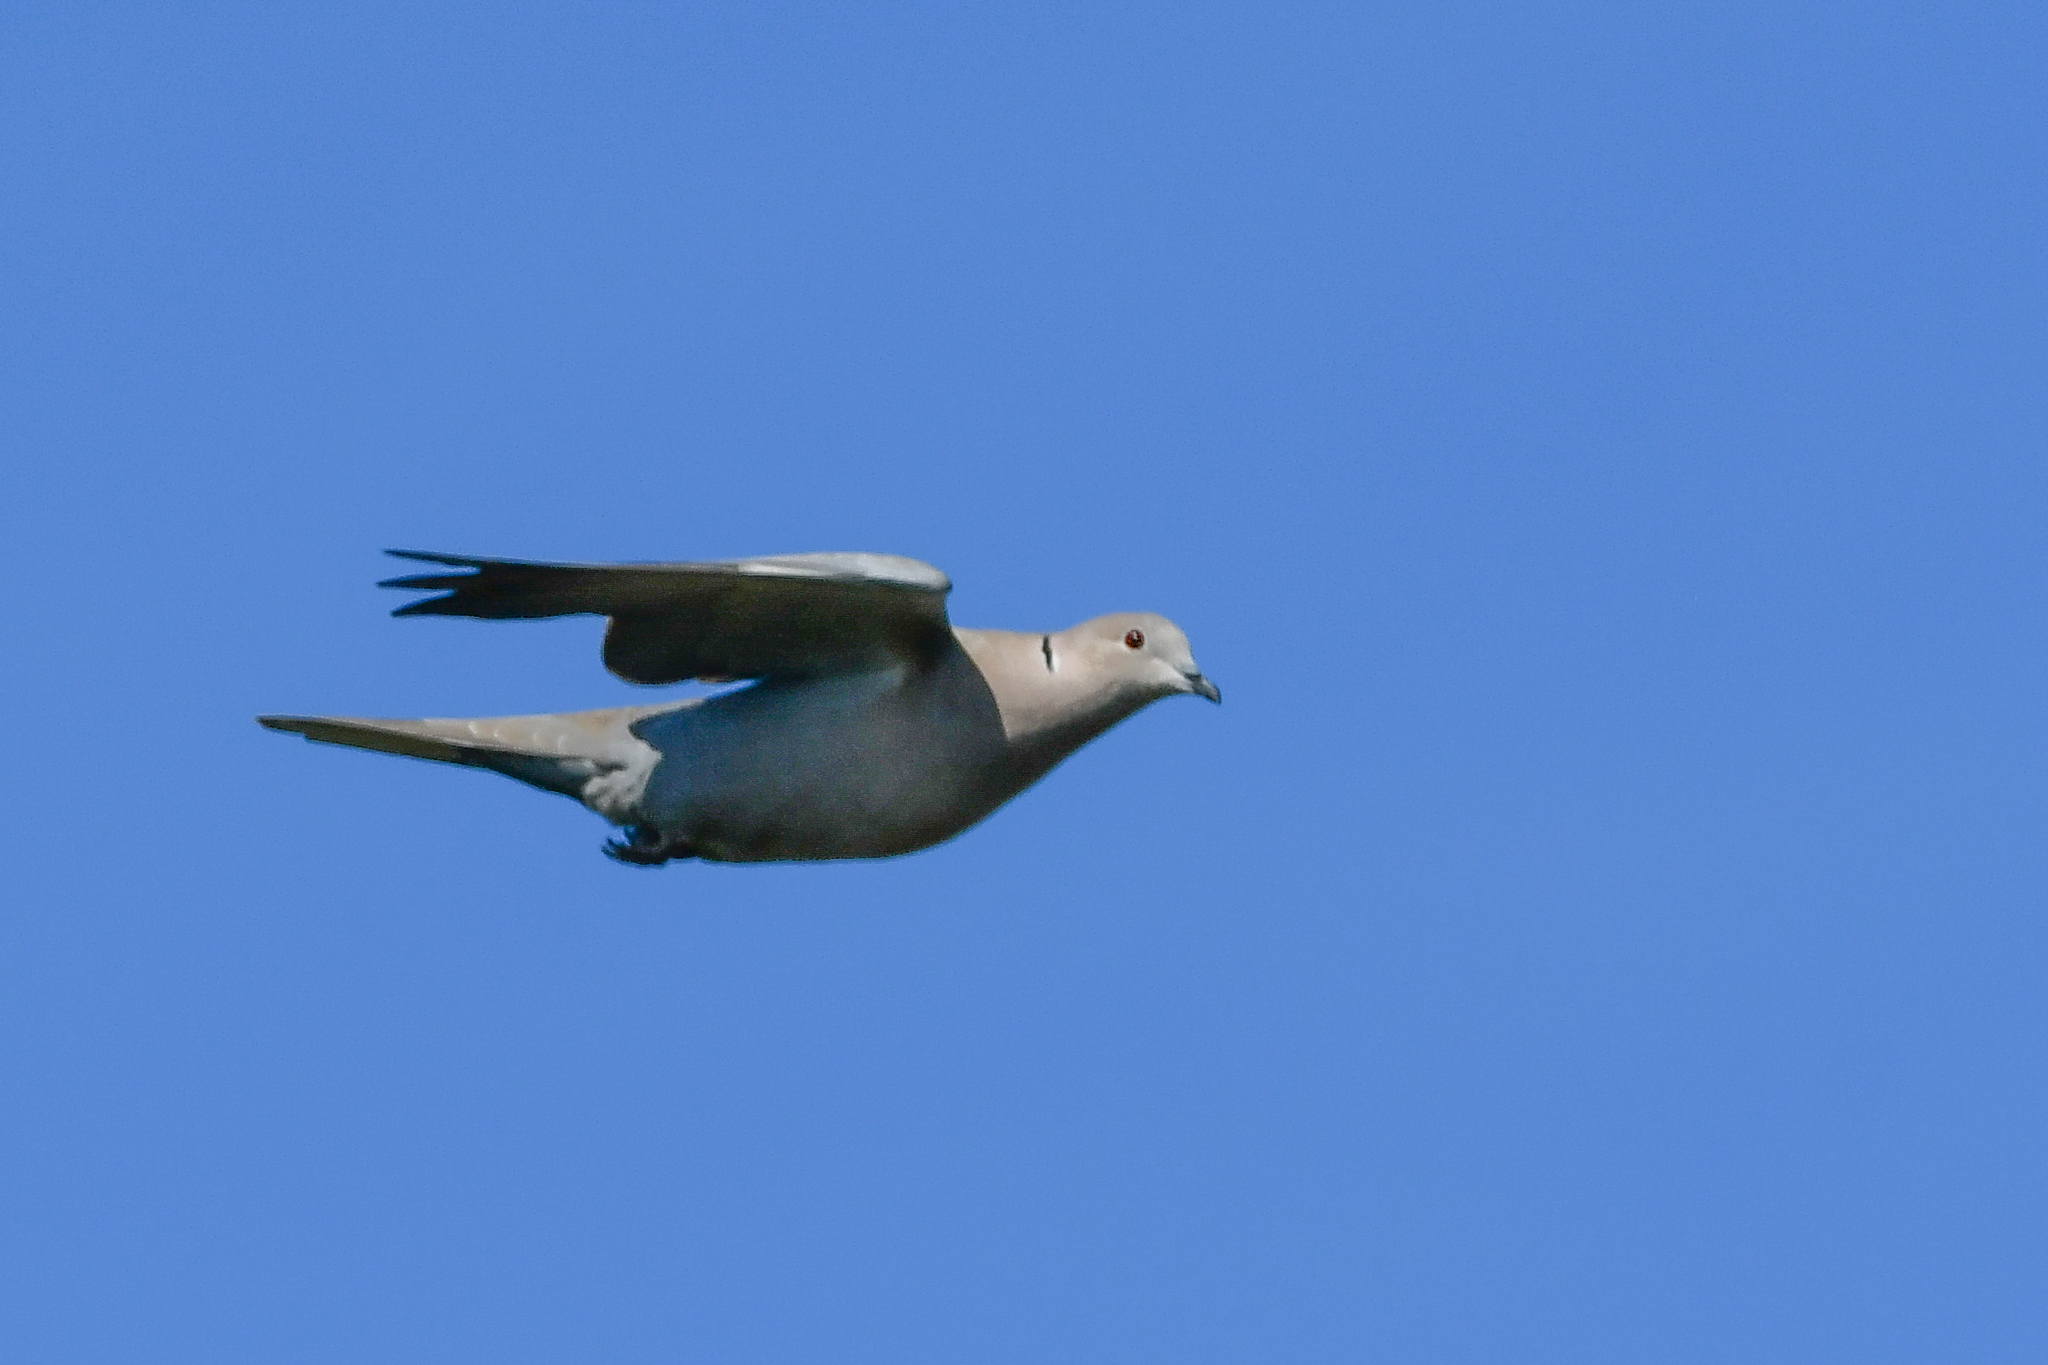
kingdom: Animalia
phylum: Chordata
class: Aves
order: Columbiformes
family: Columbidae
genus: Streptopelia
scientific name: Streptopelia decaocto
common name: Eurasian collared dove
